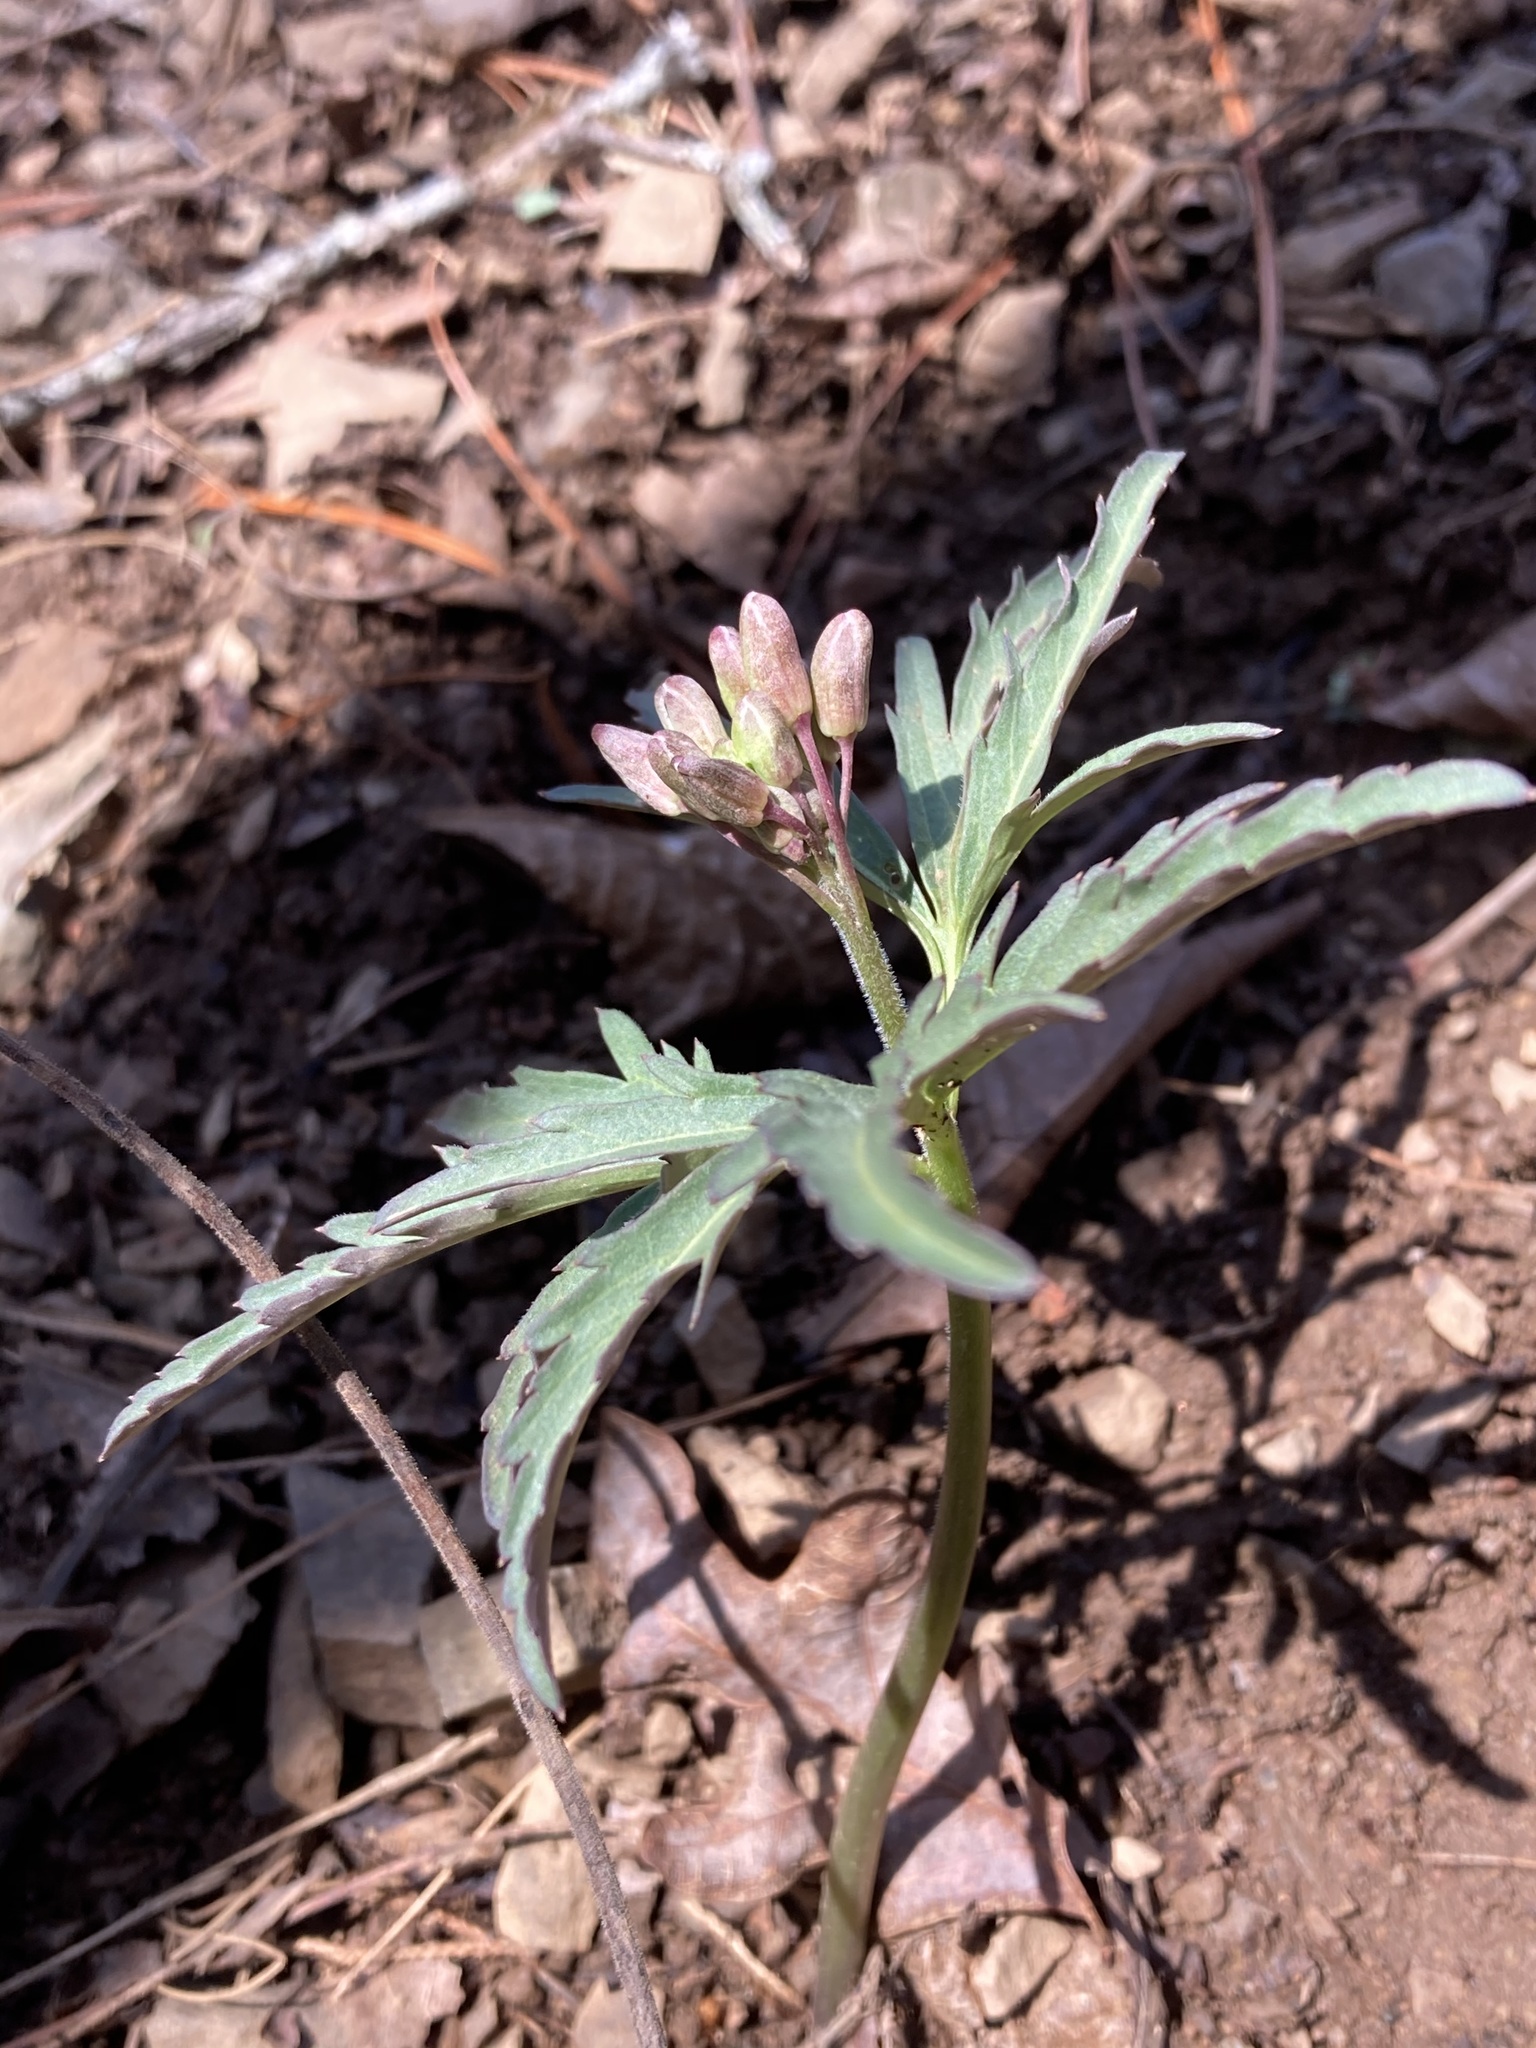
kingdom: Plantae
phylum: Tracheophyta
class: Magnoliopsida
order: Brassicales
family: Brassicaceae
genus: Cardamine
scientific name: Cardamine concatenata
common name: Cut-leaf toothcup
